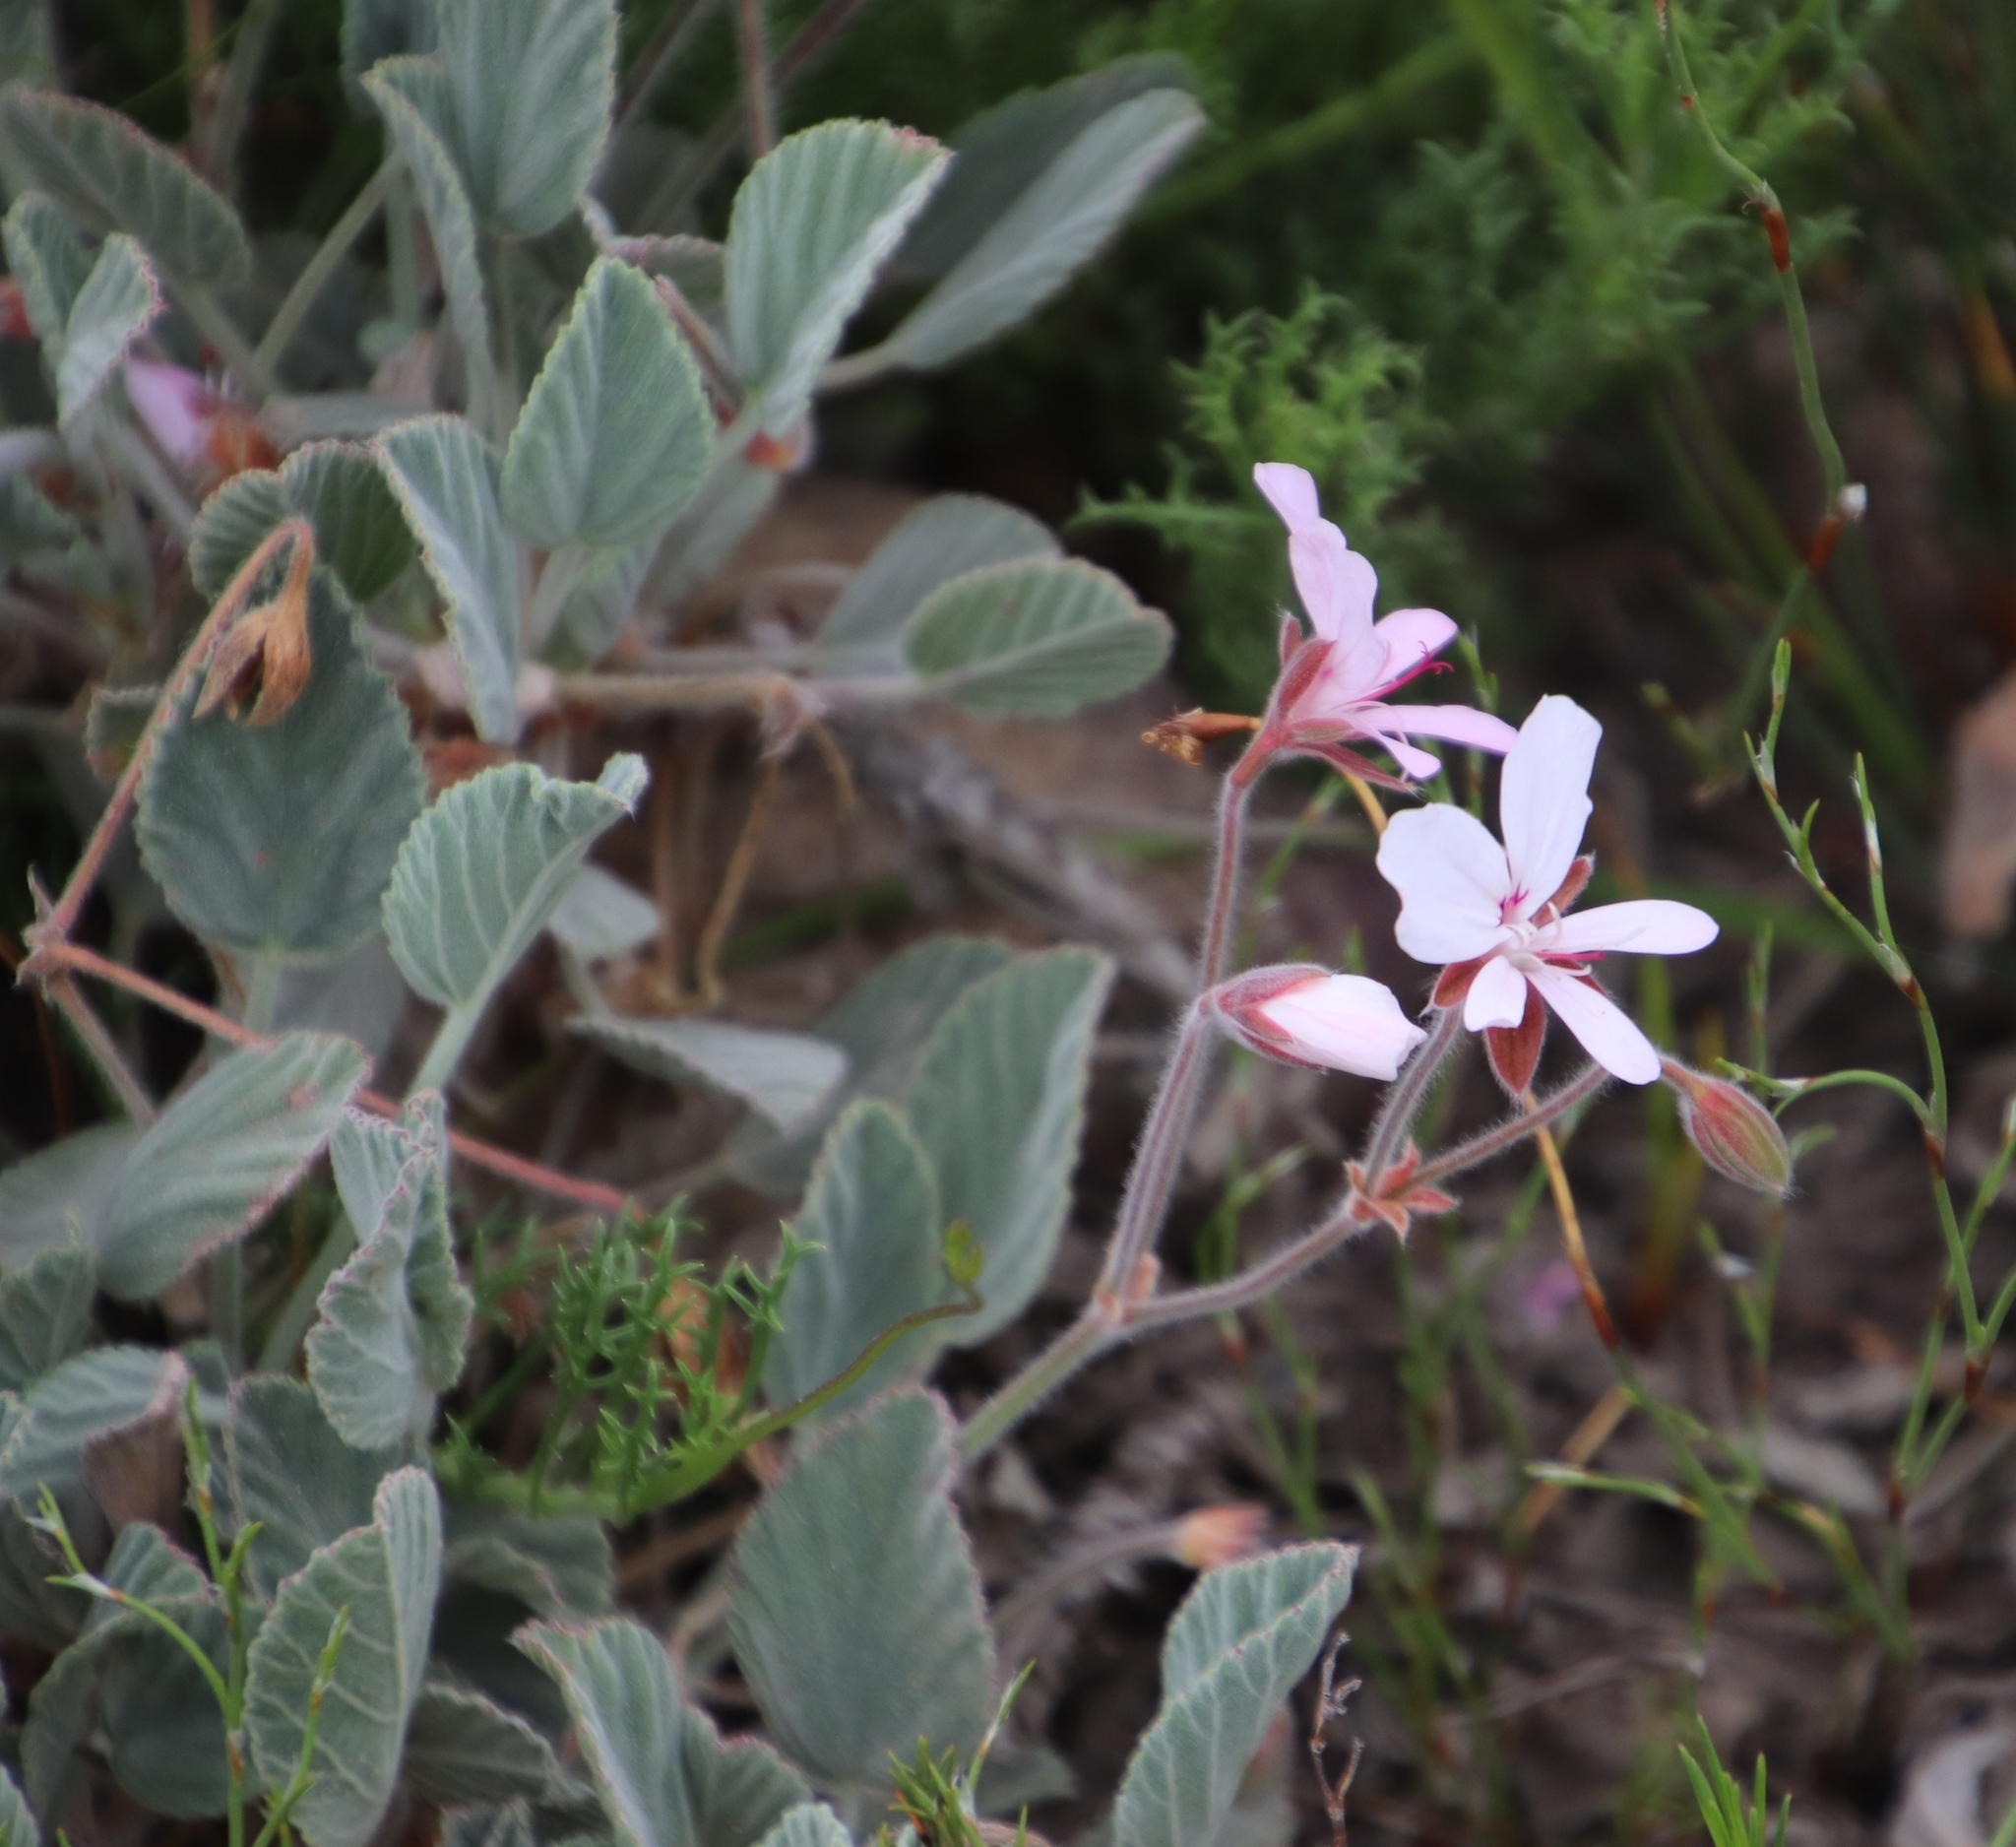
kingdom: Plantae
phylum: Tracheophyta
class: Magnoliopsida
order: Geraniales
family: Geraniaceae
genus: Pelargonium
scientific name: Pelargonium ovale
